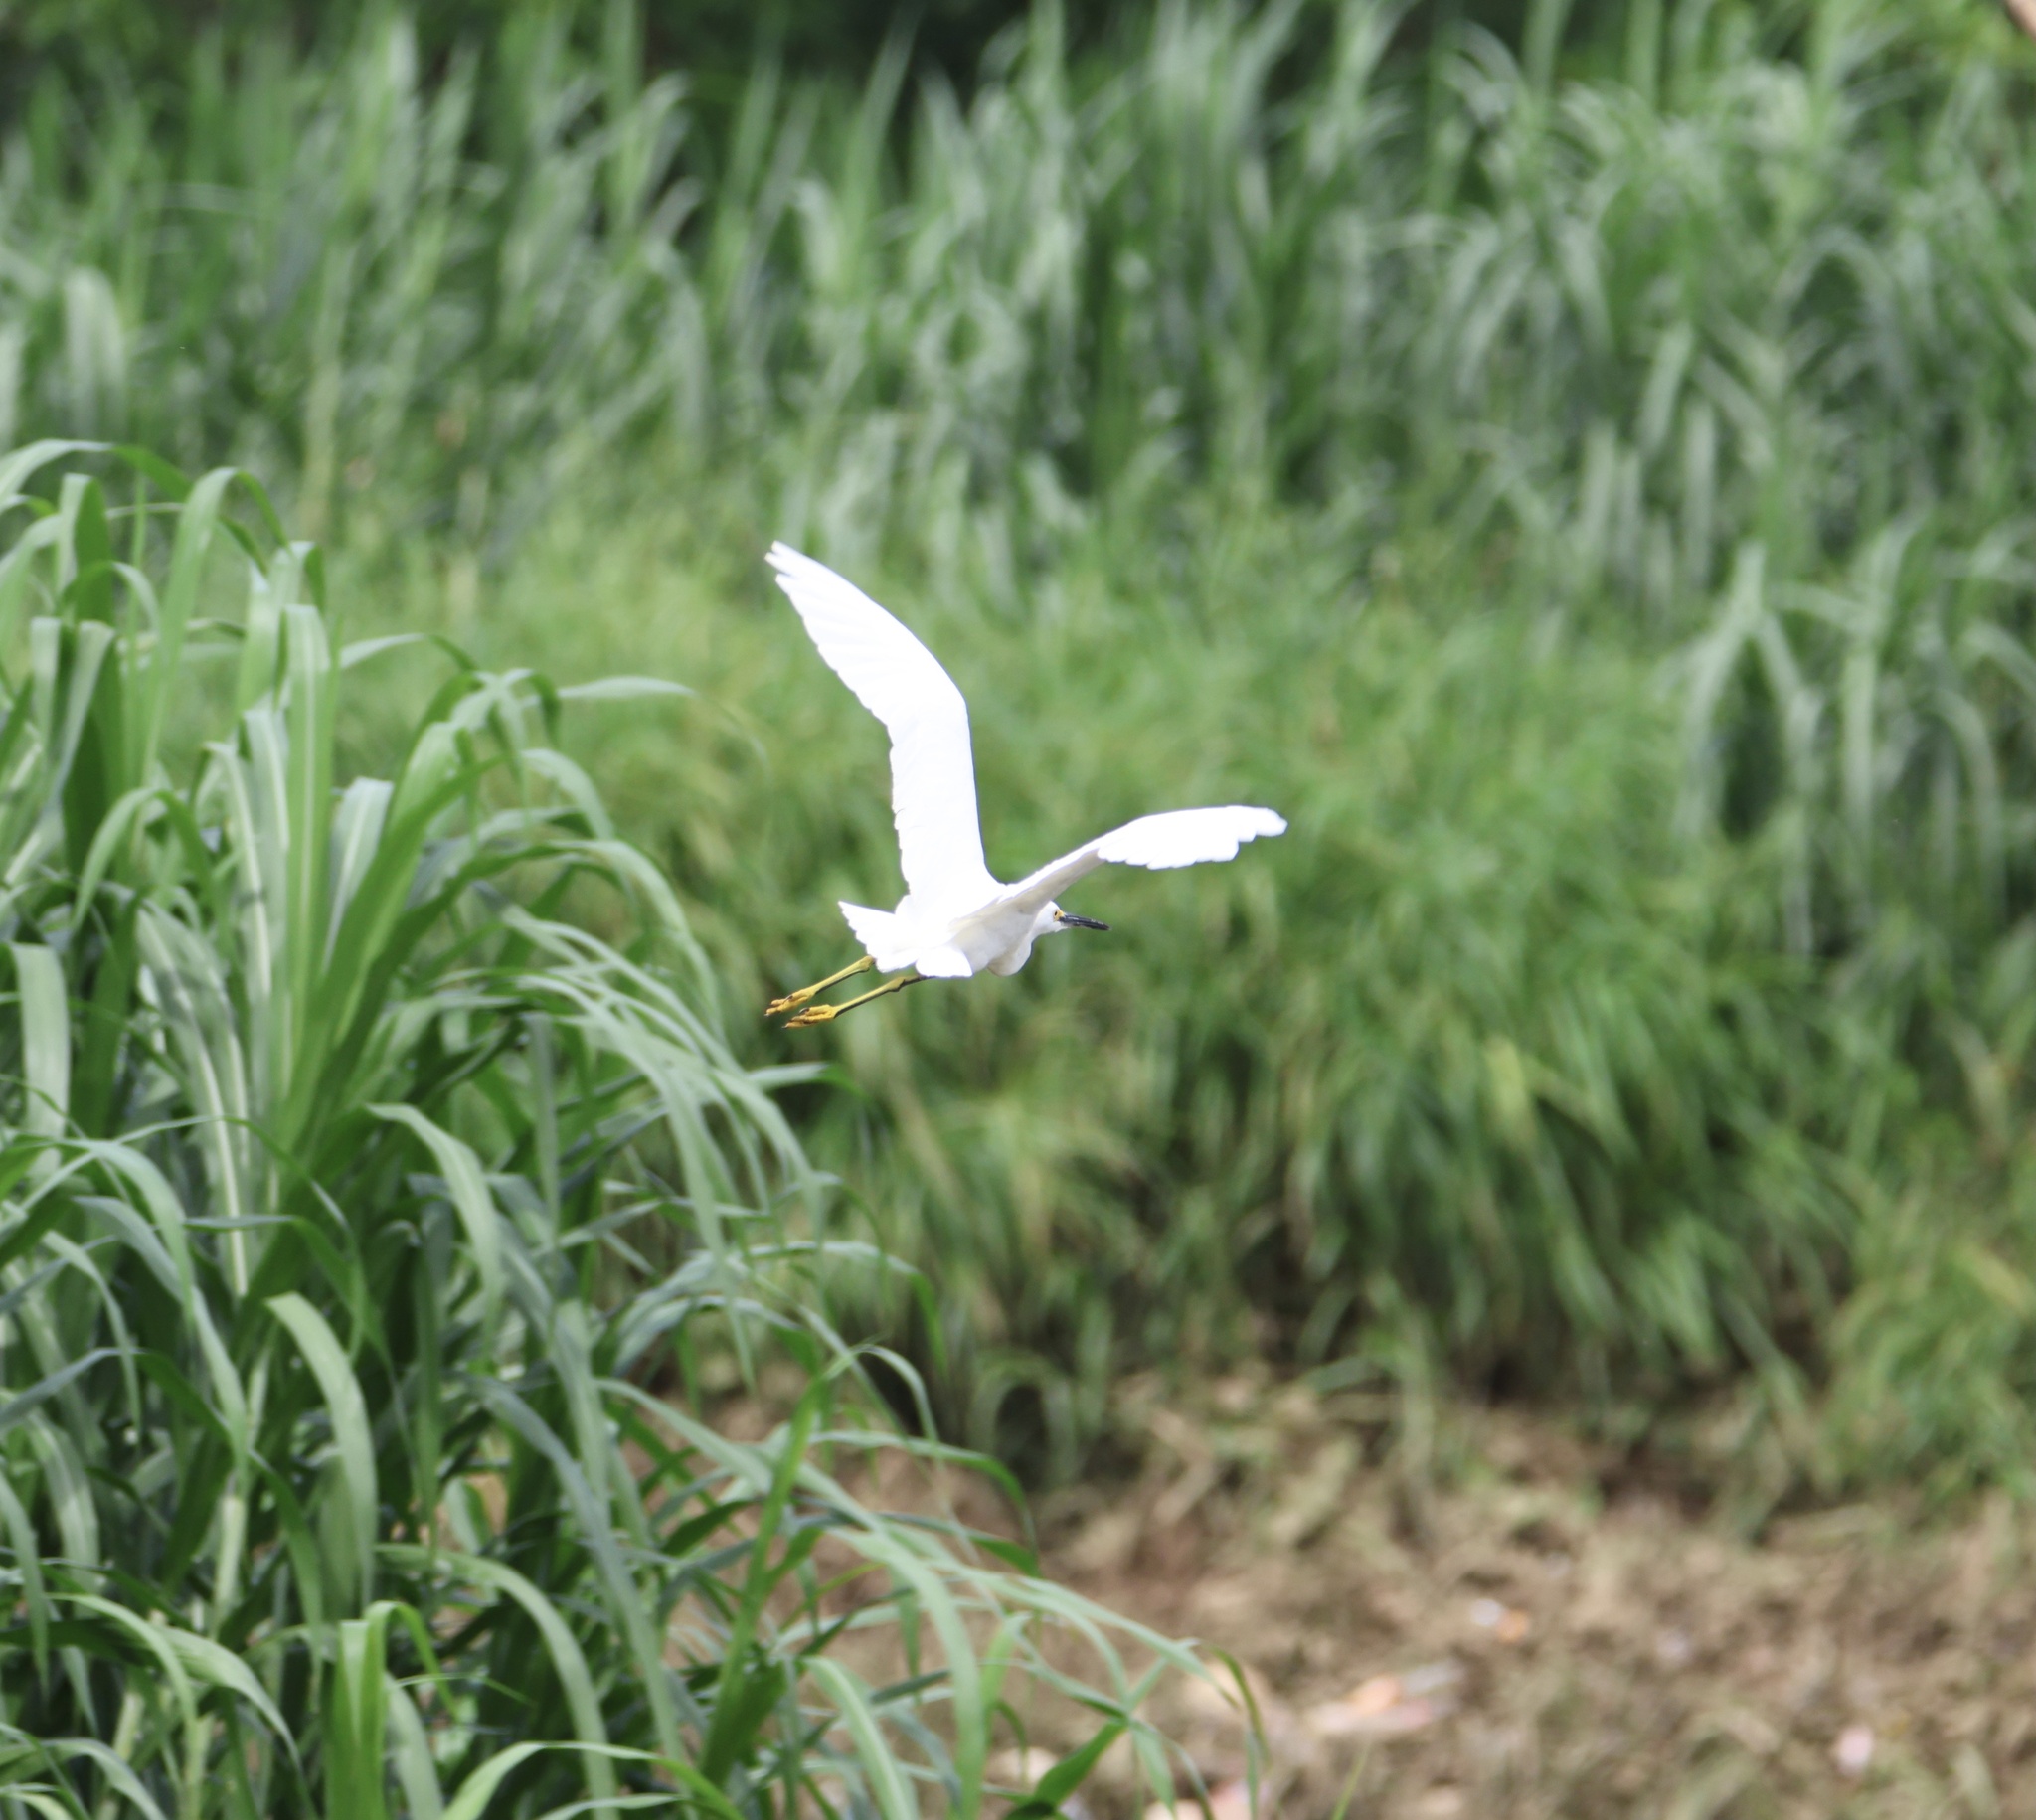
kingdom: Animalia
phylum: Chordata
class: Aves
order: Pelecaniformes
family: Ardeidae
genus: Egretta
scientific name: Egretta thula
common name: Snowy egret
